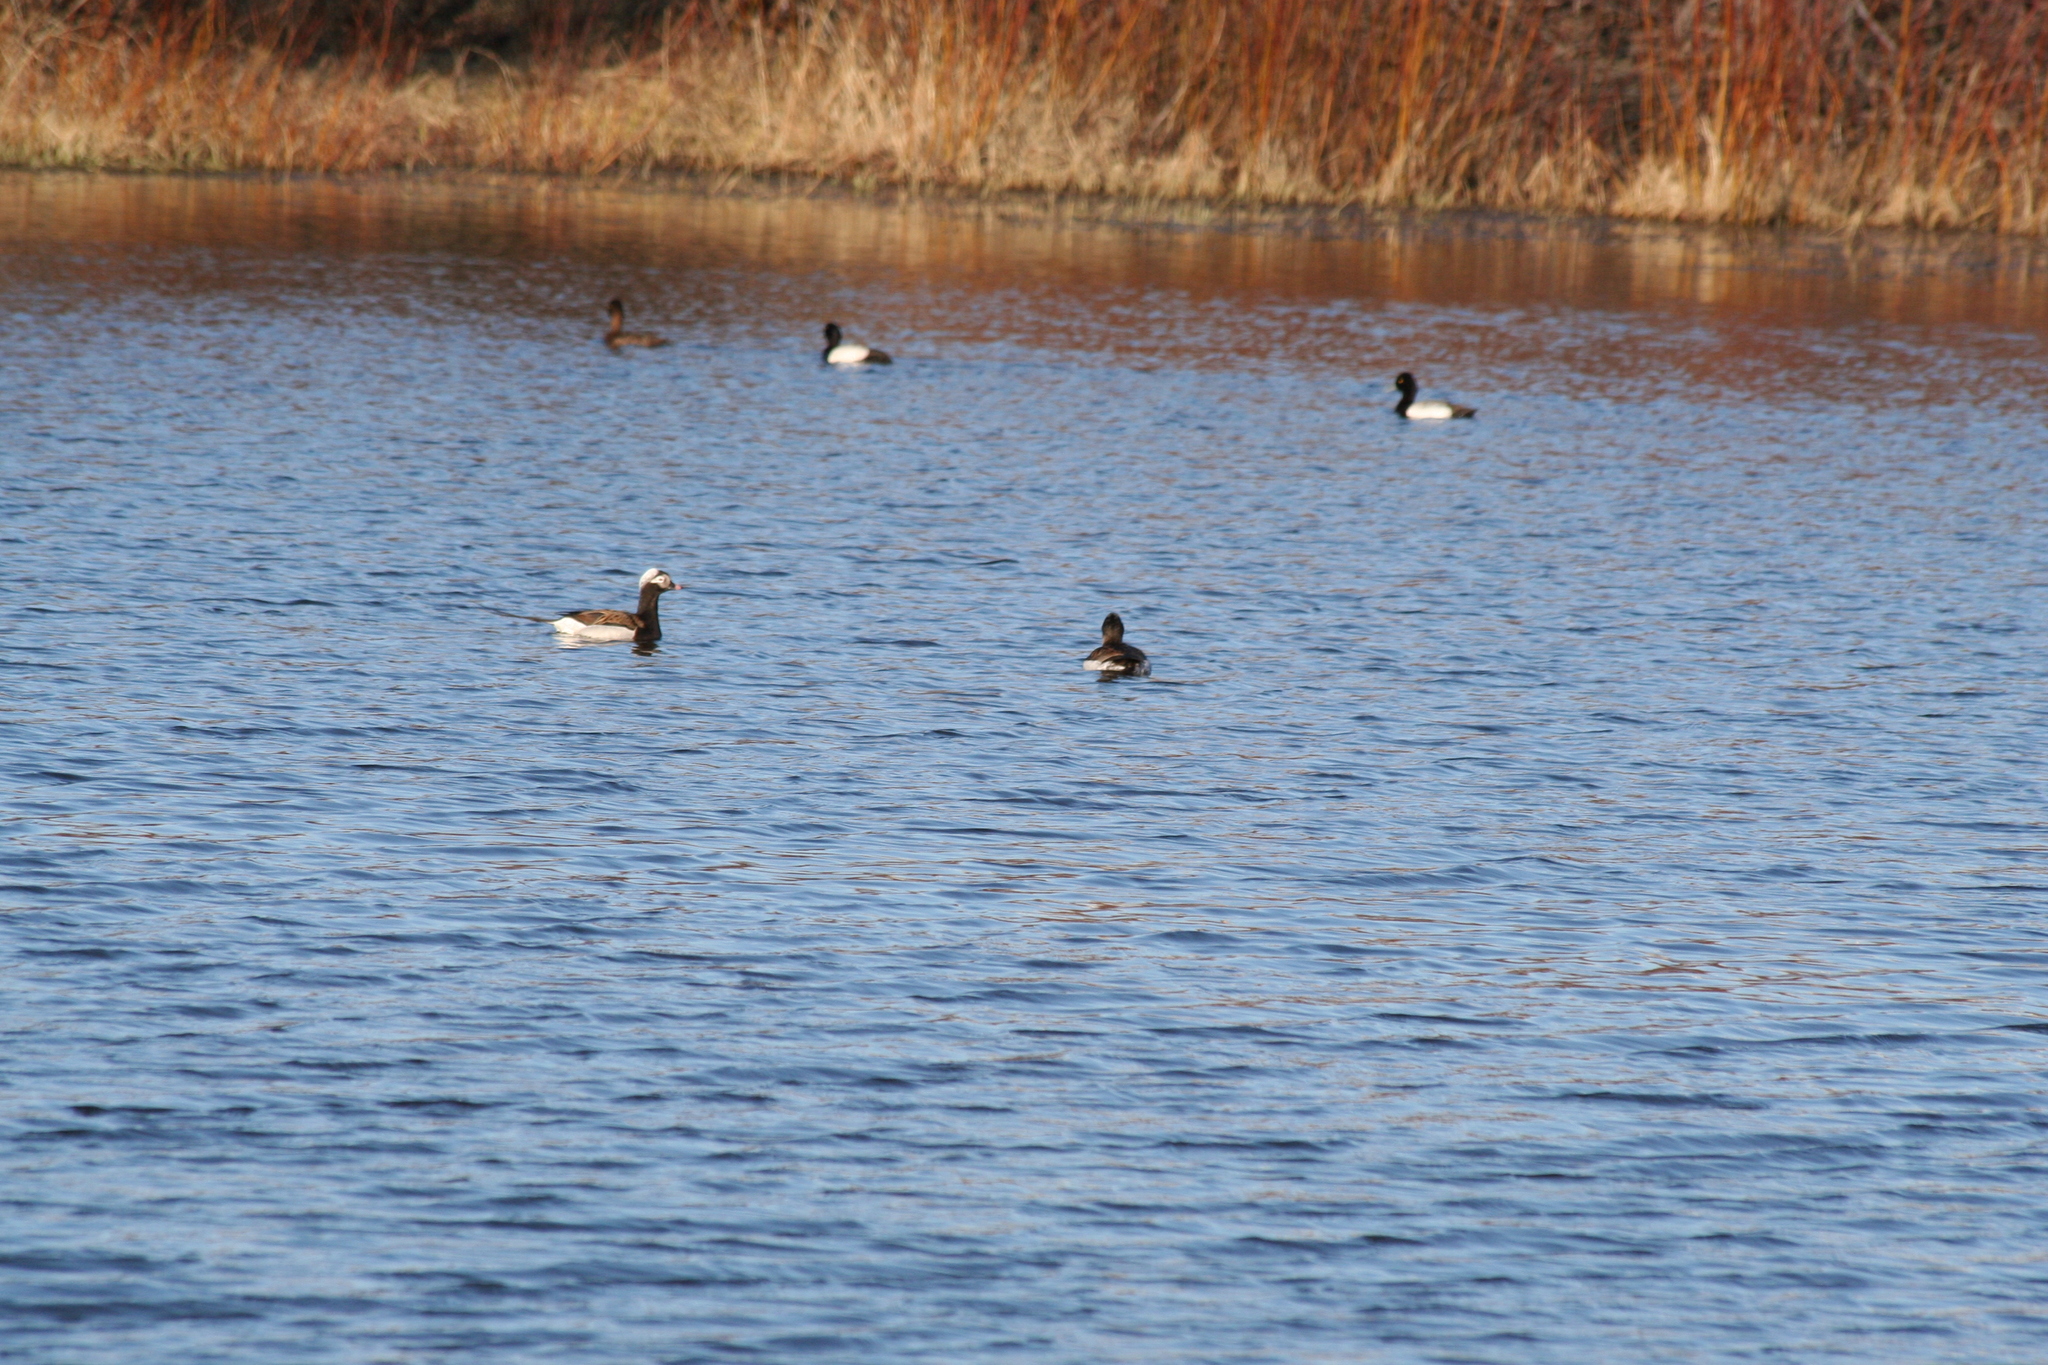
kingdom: Animalia
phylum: Chordata
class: Aves
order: Anseriformes
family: Anatidae
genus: Clangula
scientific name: Clangula hyemalis
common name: Long-tailed duck
